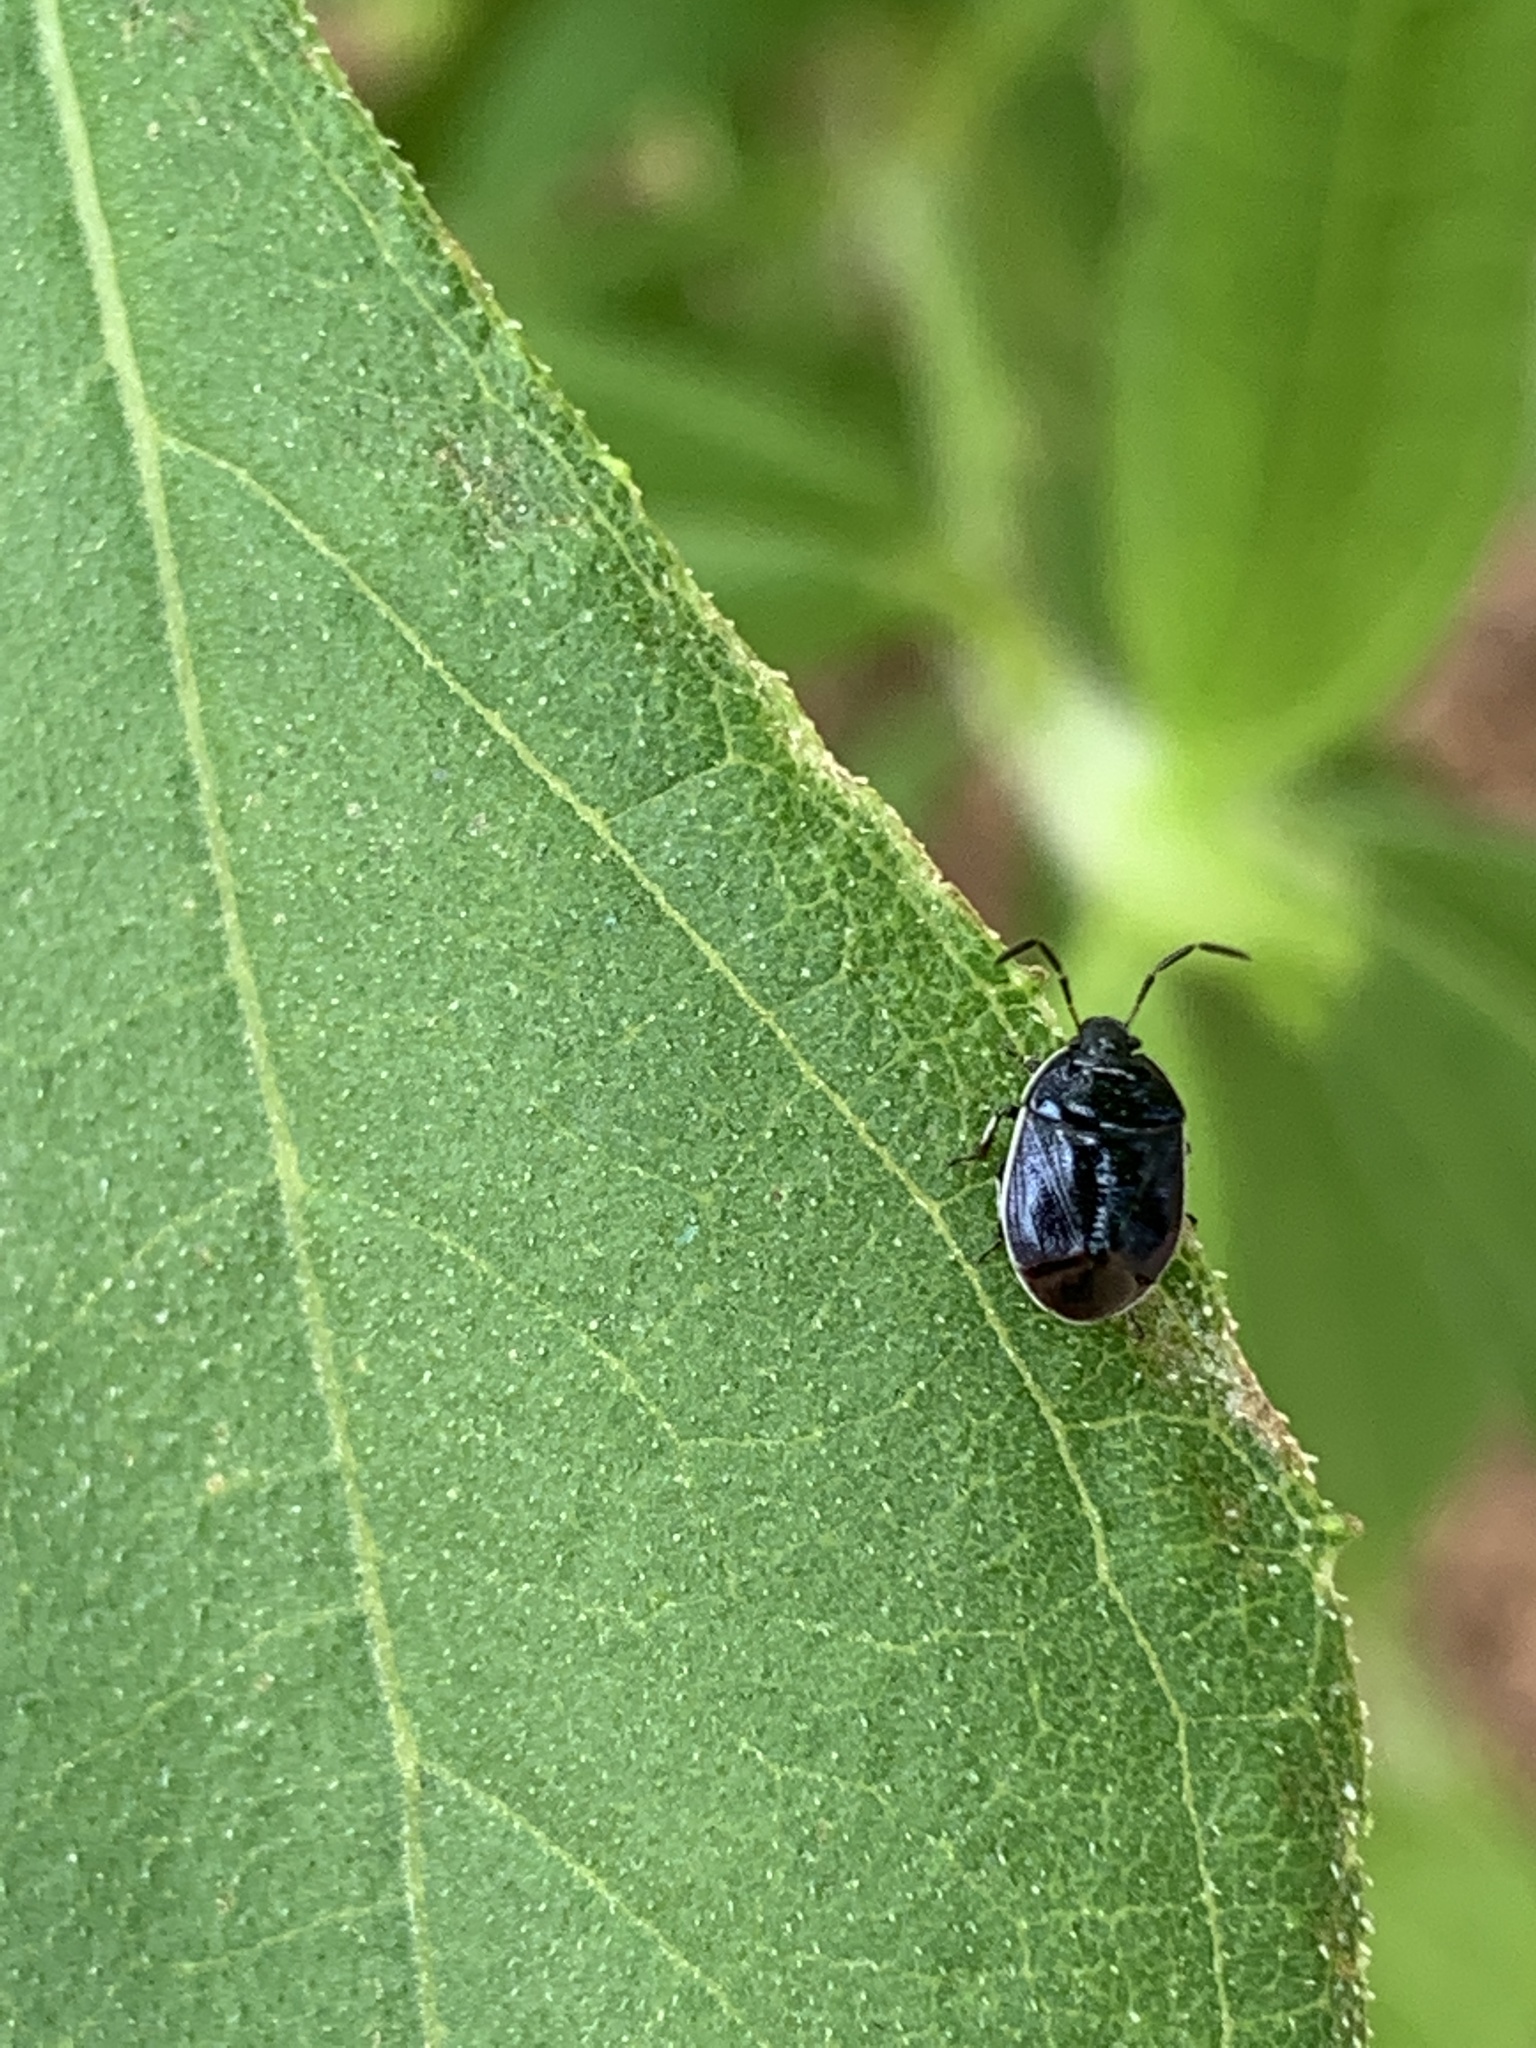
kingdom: Animalia
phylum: Arthropoda
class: Insecta
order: Hemiptera
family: Cydnidae
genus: Sehirus
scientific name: Sehirus cinctus
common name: White-margined burrower bug
